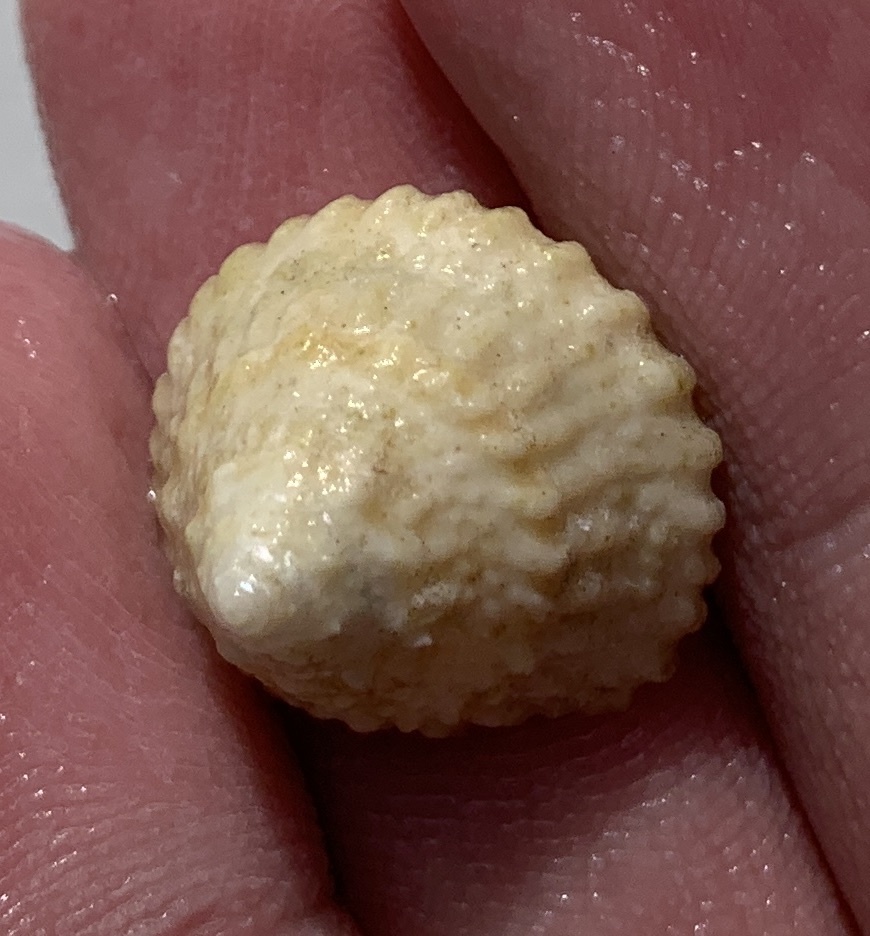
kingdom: Animalia
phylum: Mollusca
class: Gastropoda
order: Trochida
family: Turbinidae
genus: Lithopoma
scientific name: Lithopoma americanum
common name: American starsnail
